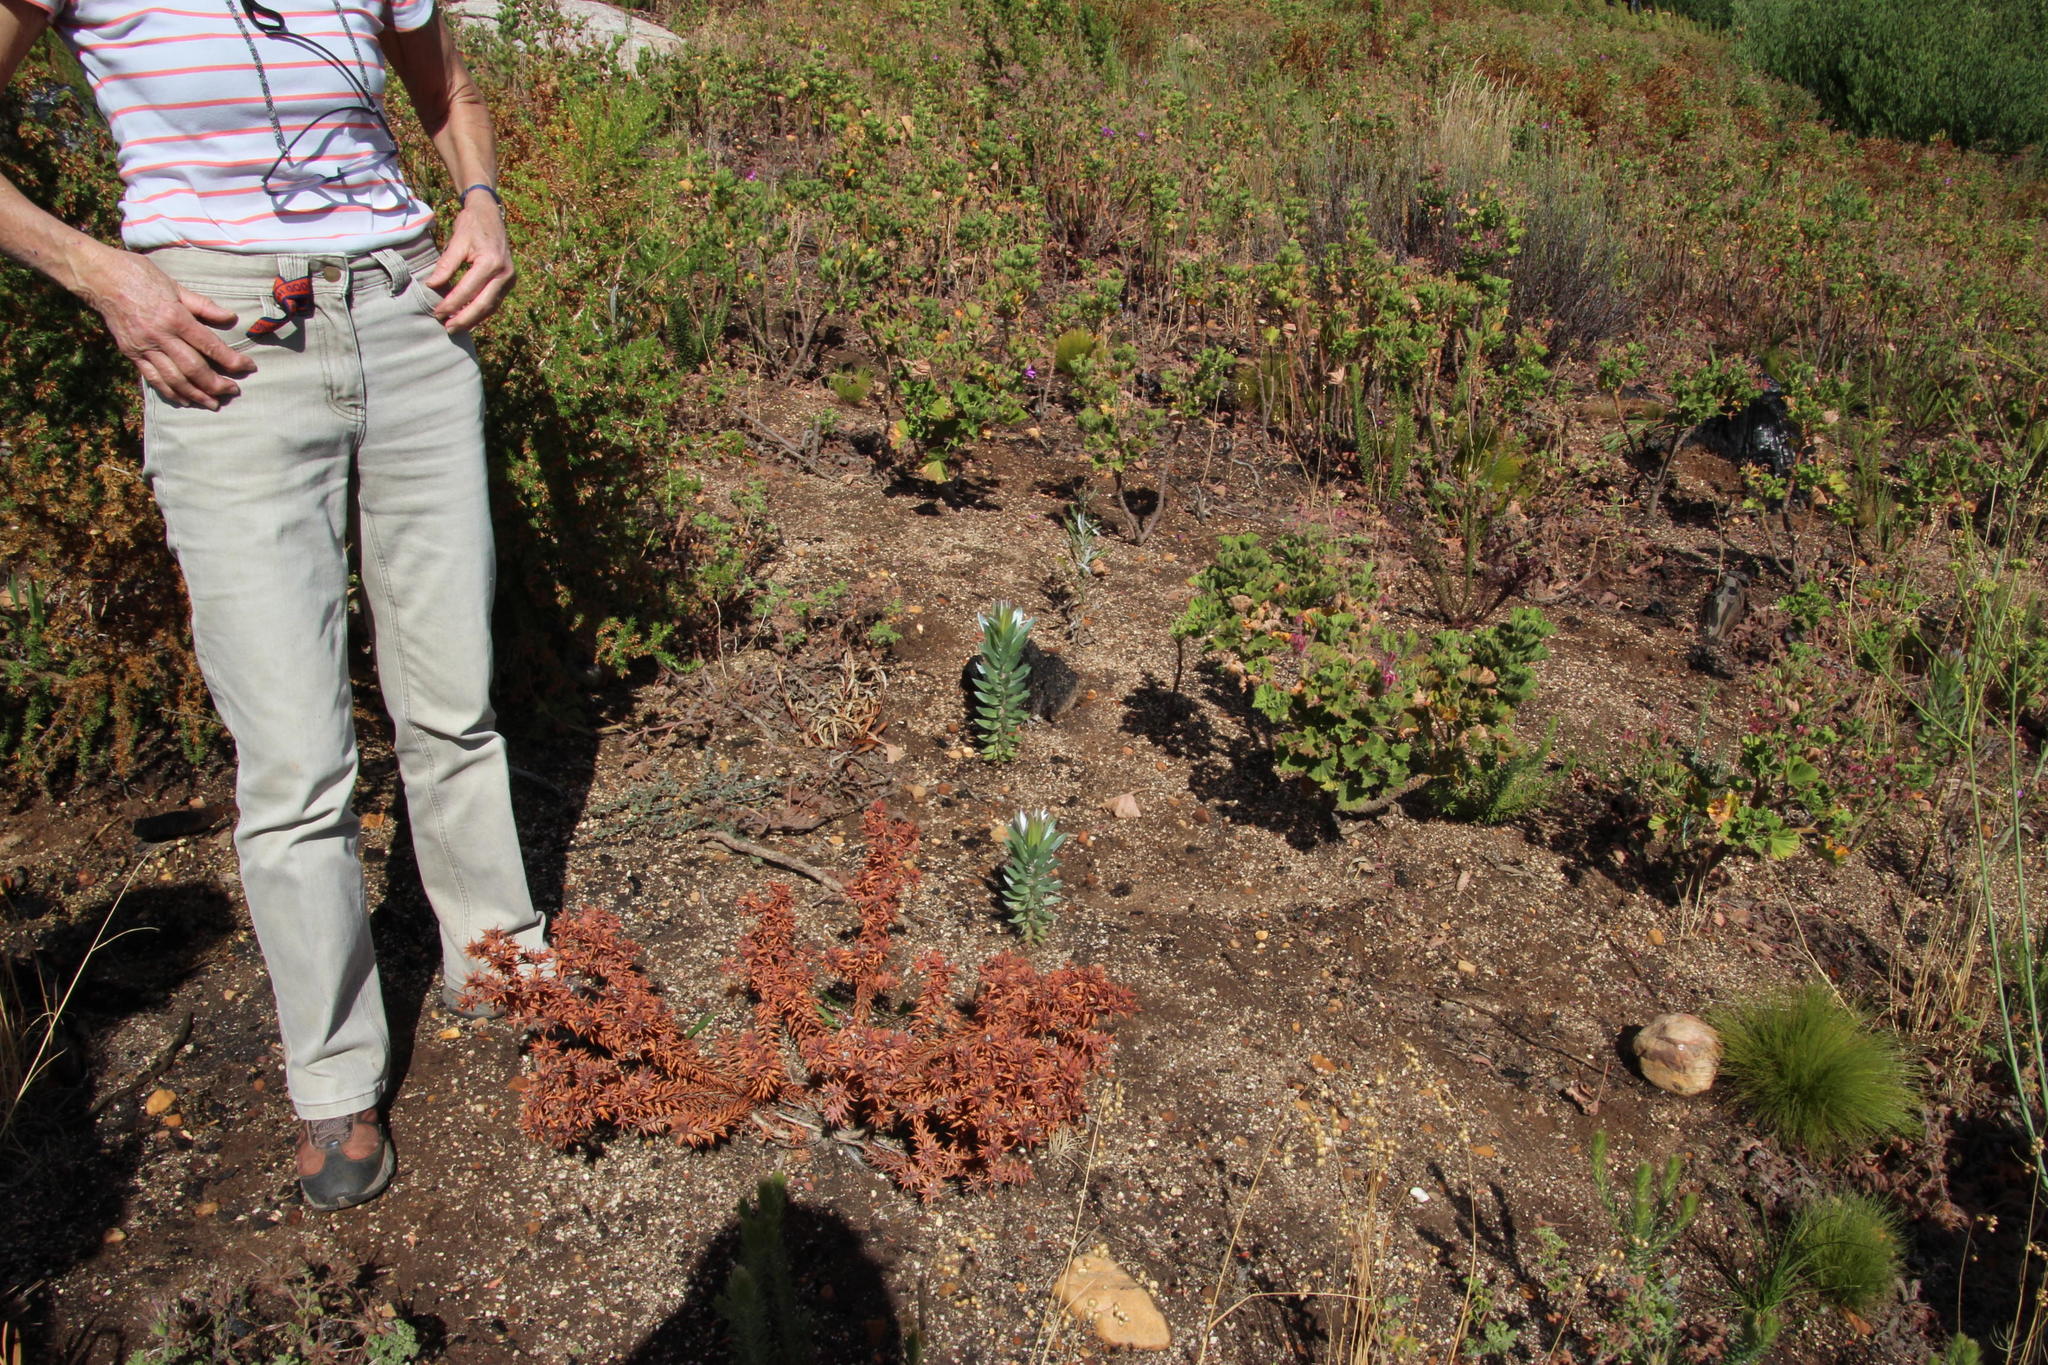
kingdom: Plantae
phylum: Tracheophyta
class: Magnoliopsida
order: Proteales
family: Proteaceae
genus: Leucadendron
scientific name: Leucadendron argenteum
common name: Cape silver tree
